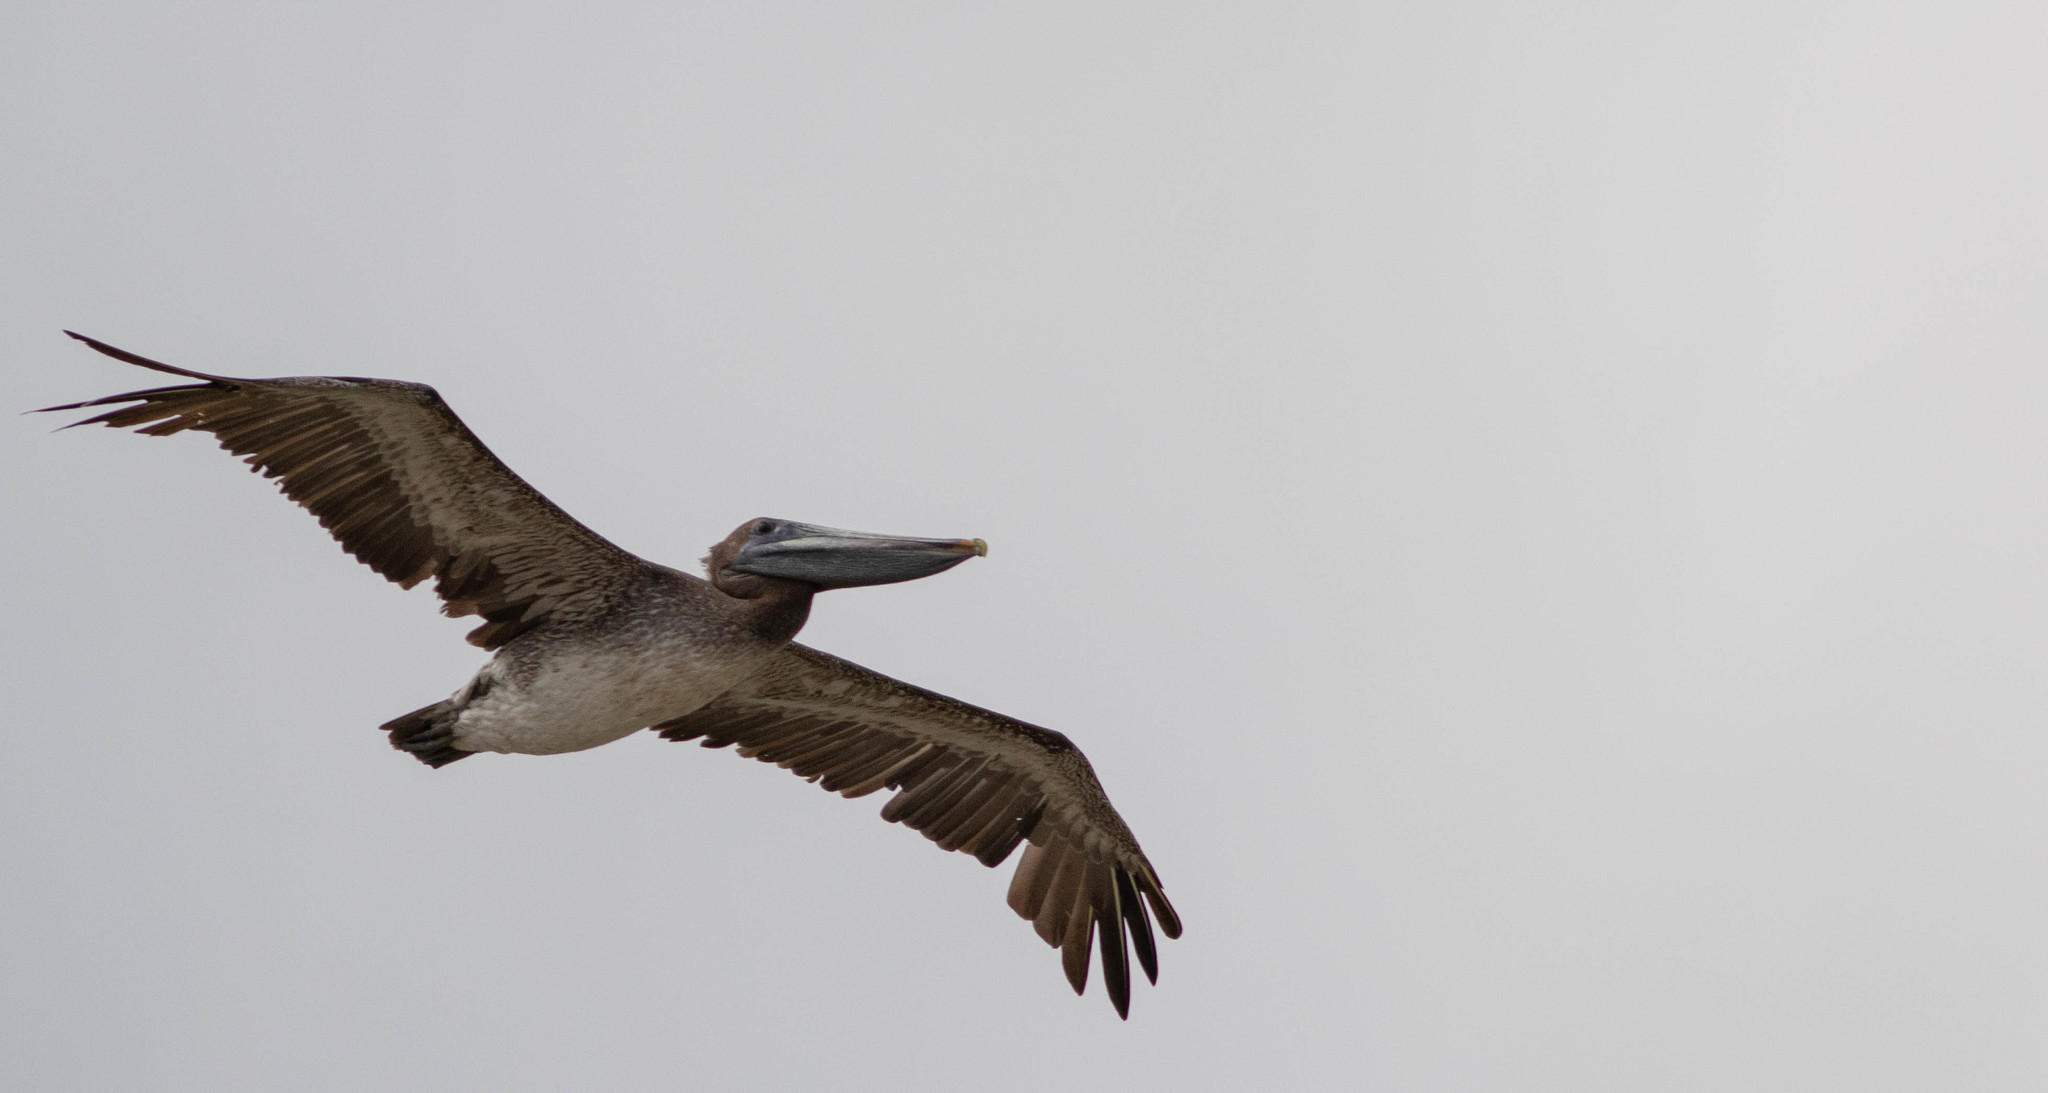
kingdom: Animalia
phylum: Chordata
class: Aves
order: Pelecaniformes
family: Pelecanidae
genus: Pelecanus
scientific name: Pelecanus occidentalis
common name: Brown pelican
